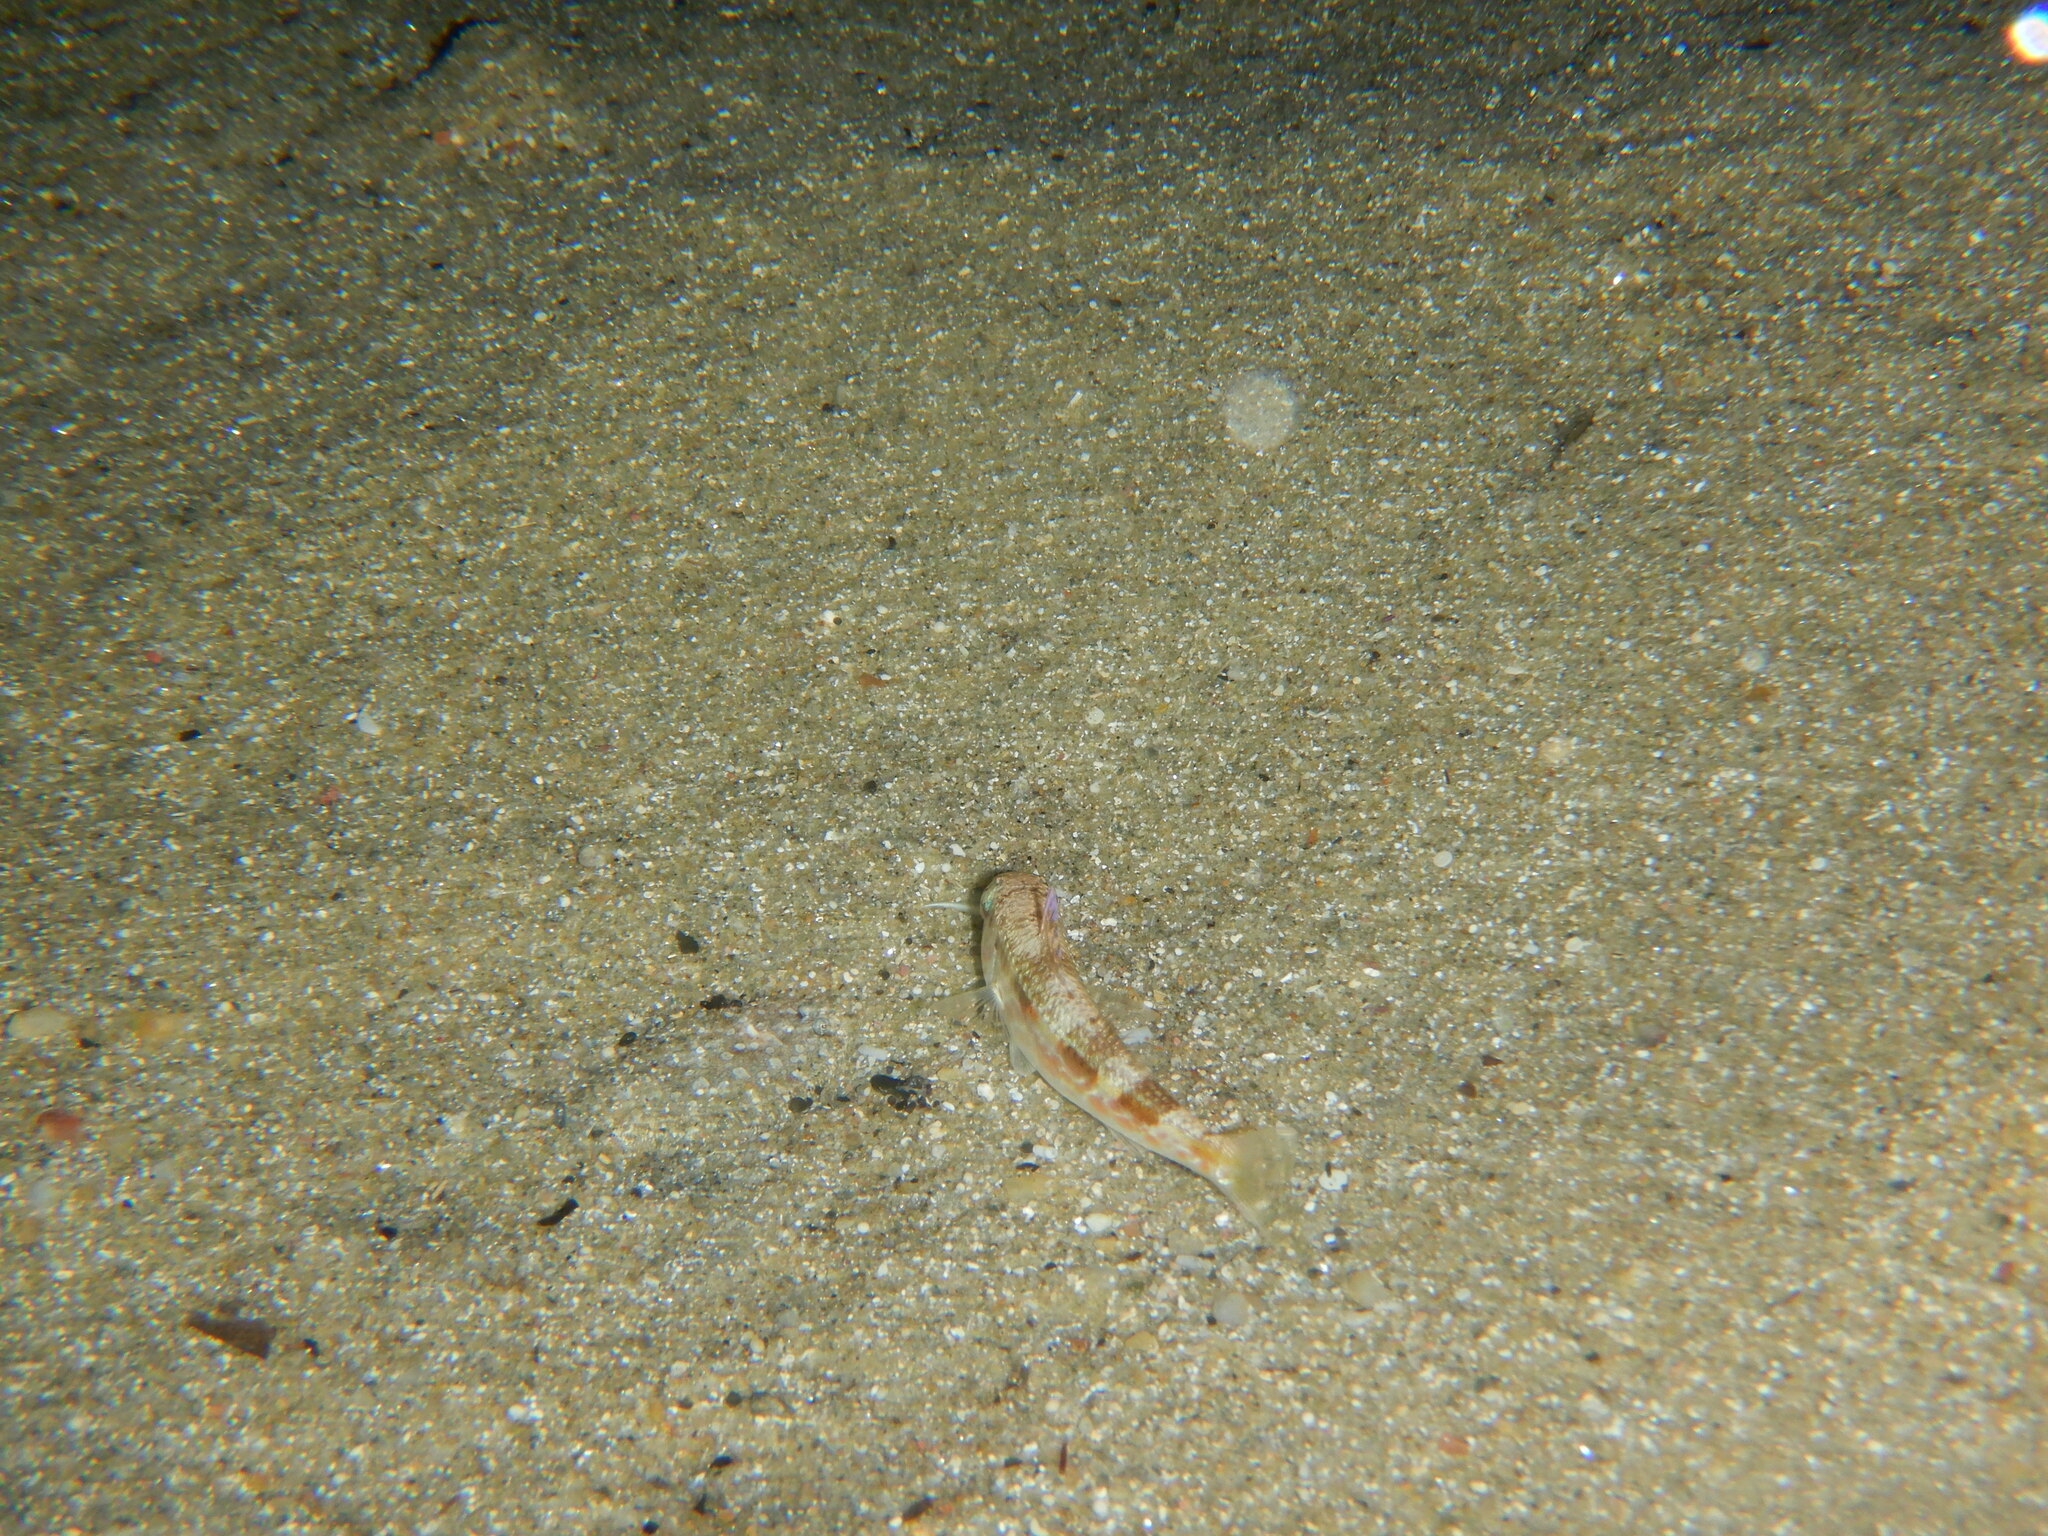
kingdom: Animalia
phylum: Chordata
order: Perciformes
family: Mullidae
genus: Mullus
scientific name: Mullus
